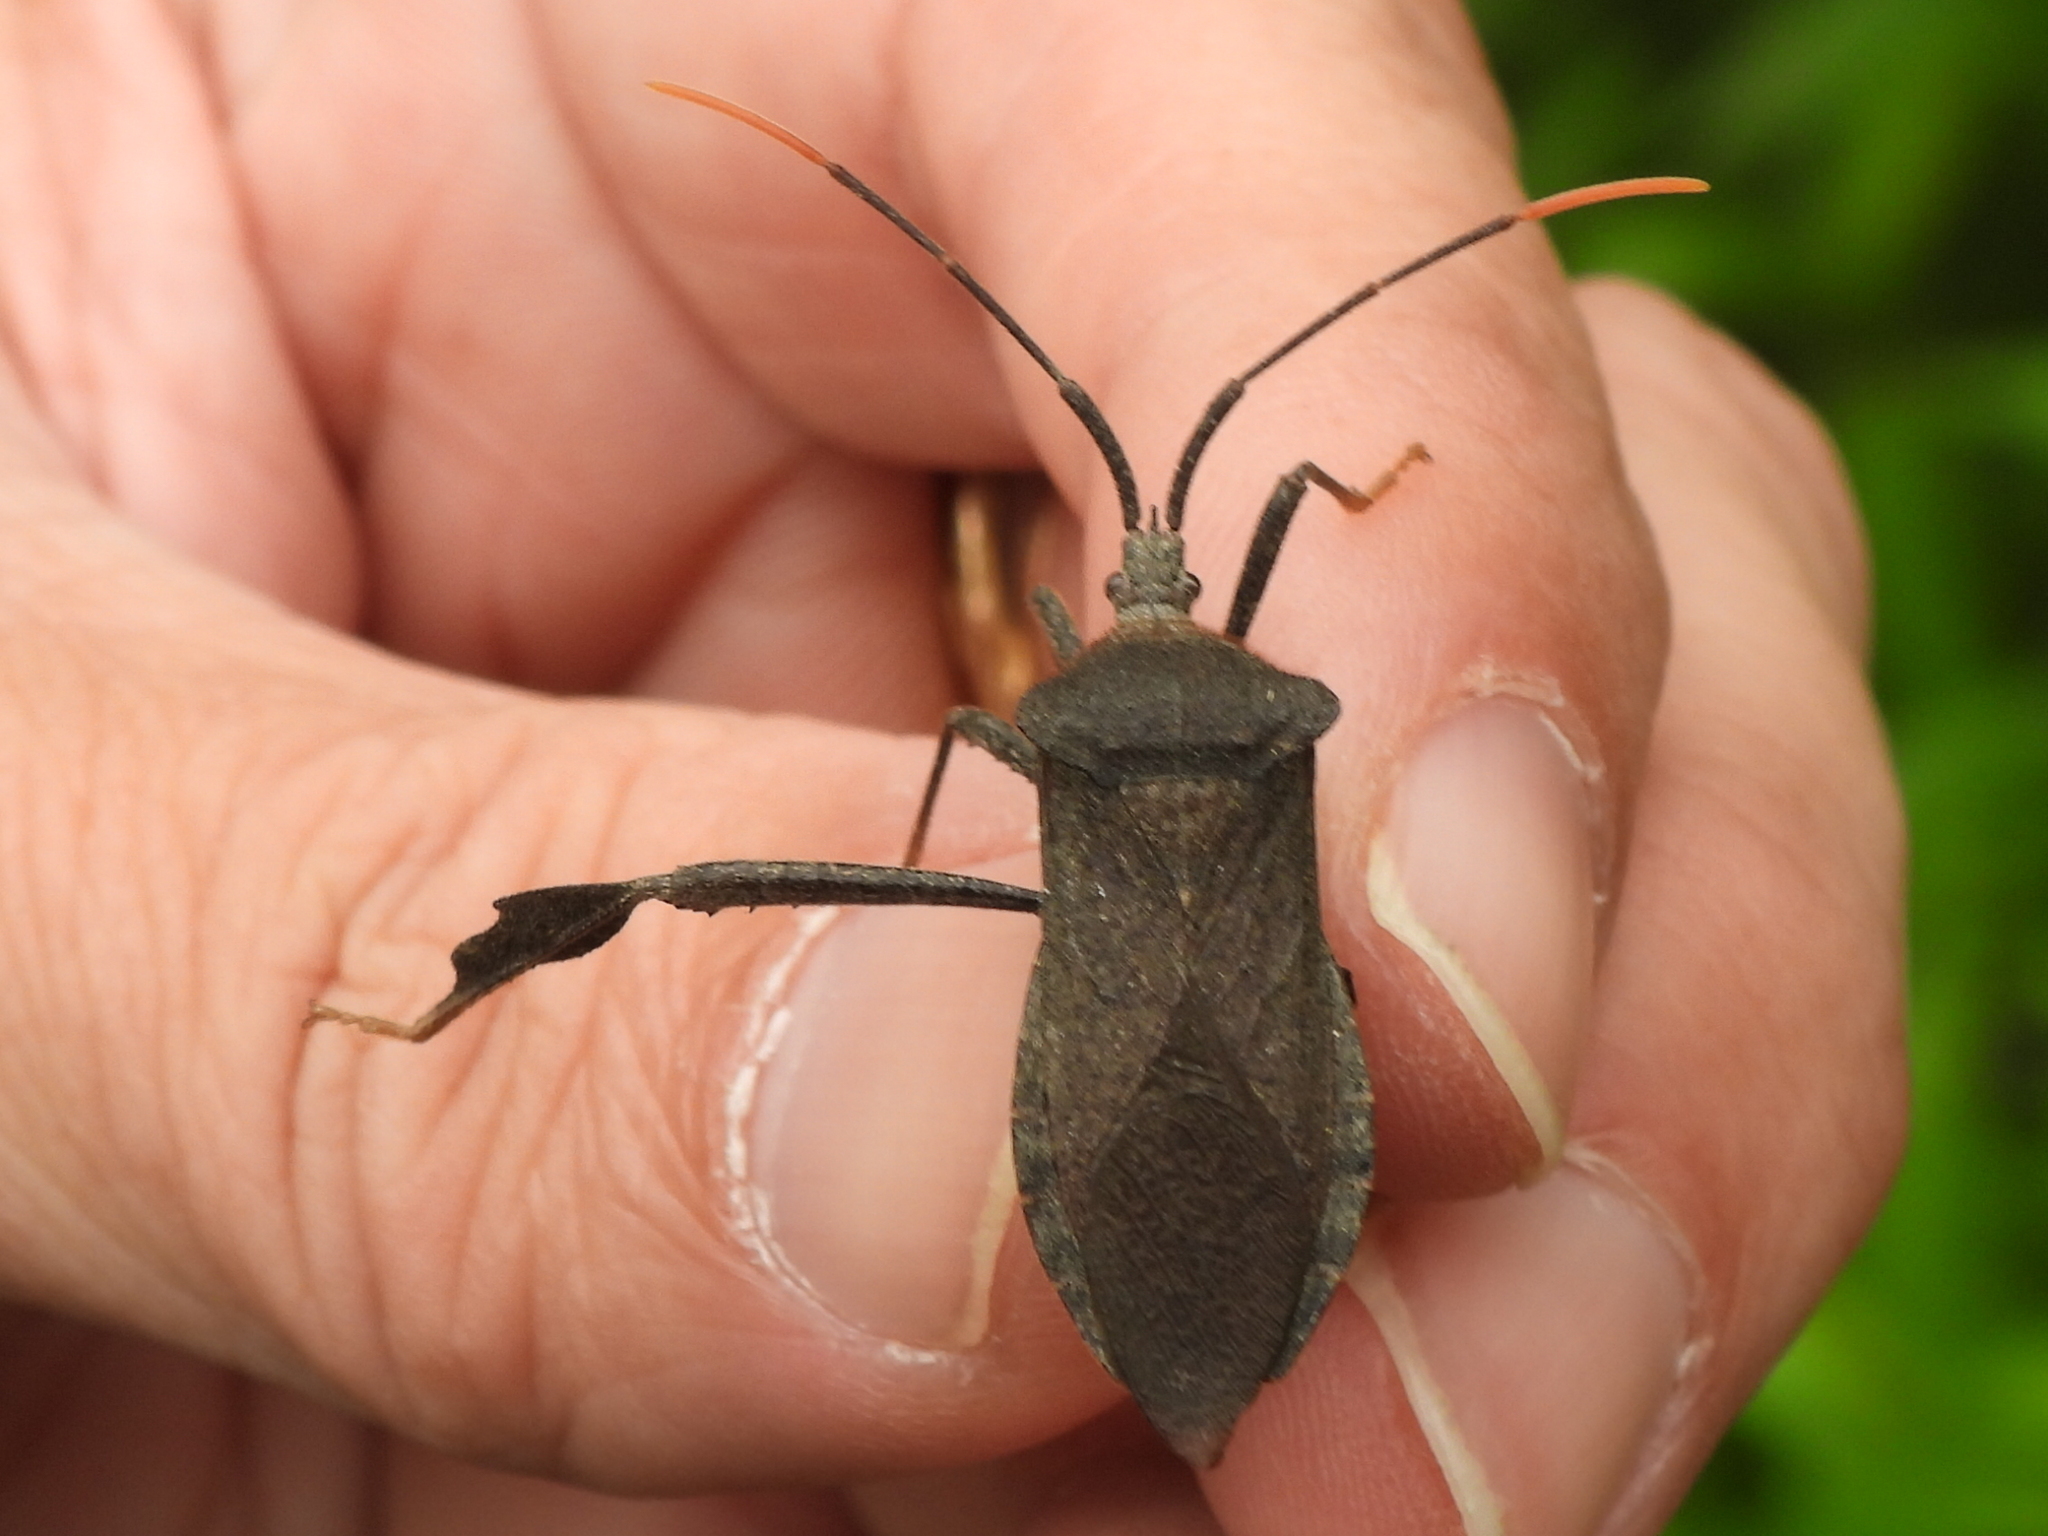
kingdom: Animalia
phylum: Arthropoda
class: Insecta
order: Hemiptera
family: Coreidae
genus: Acanthocephala
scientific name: Acanthocephala terminalis
